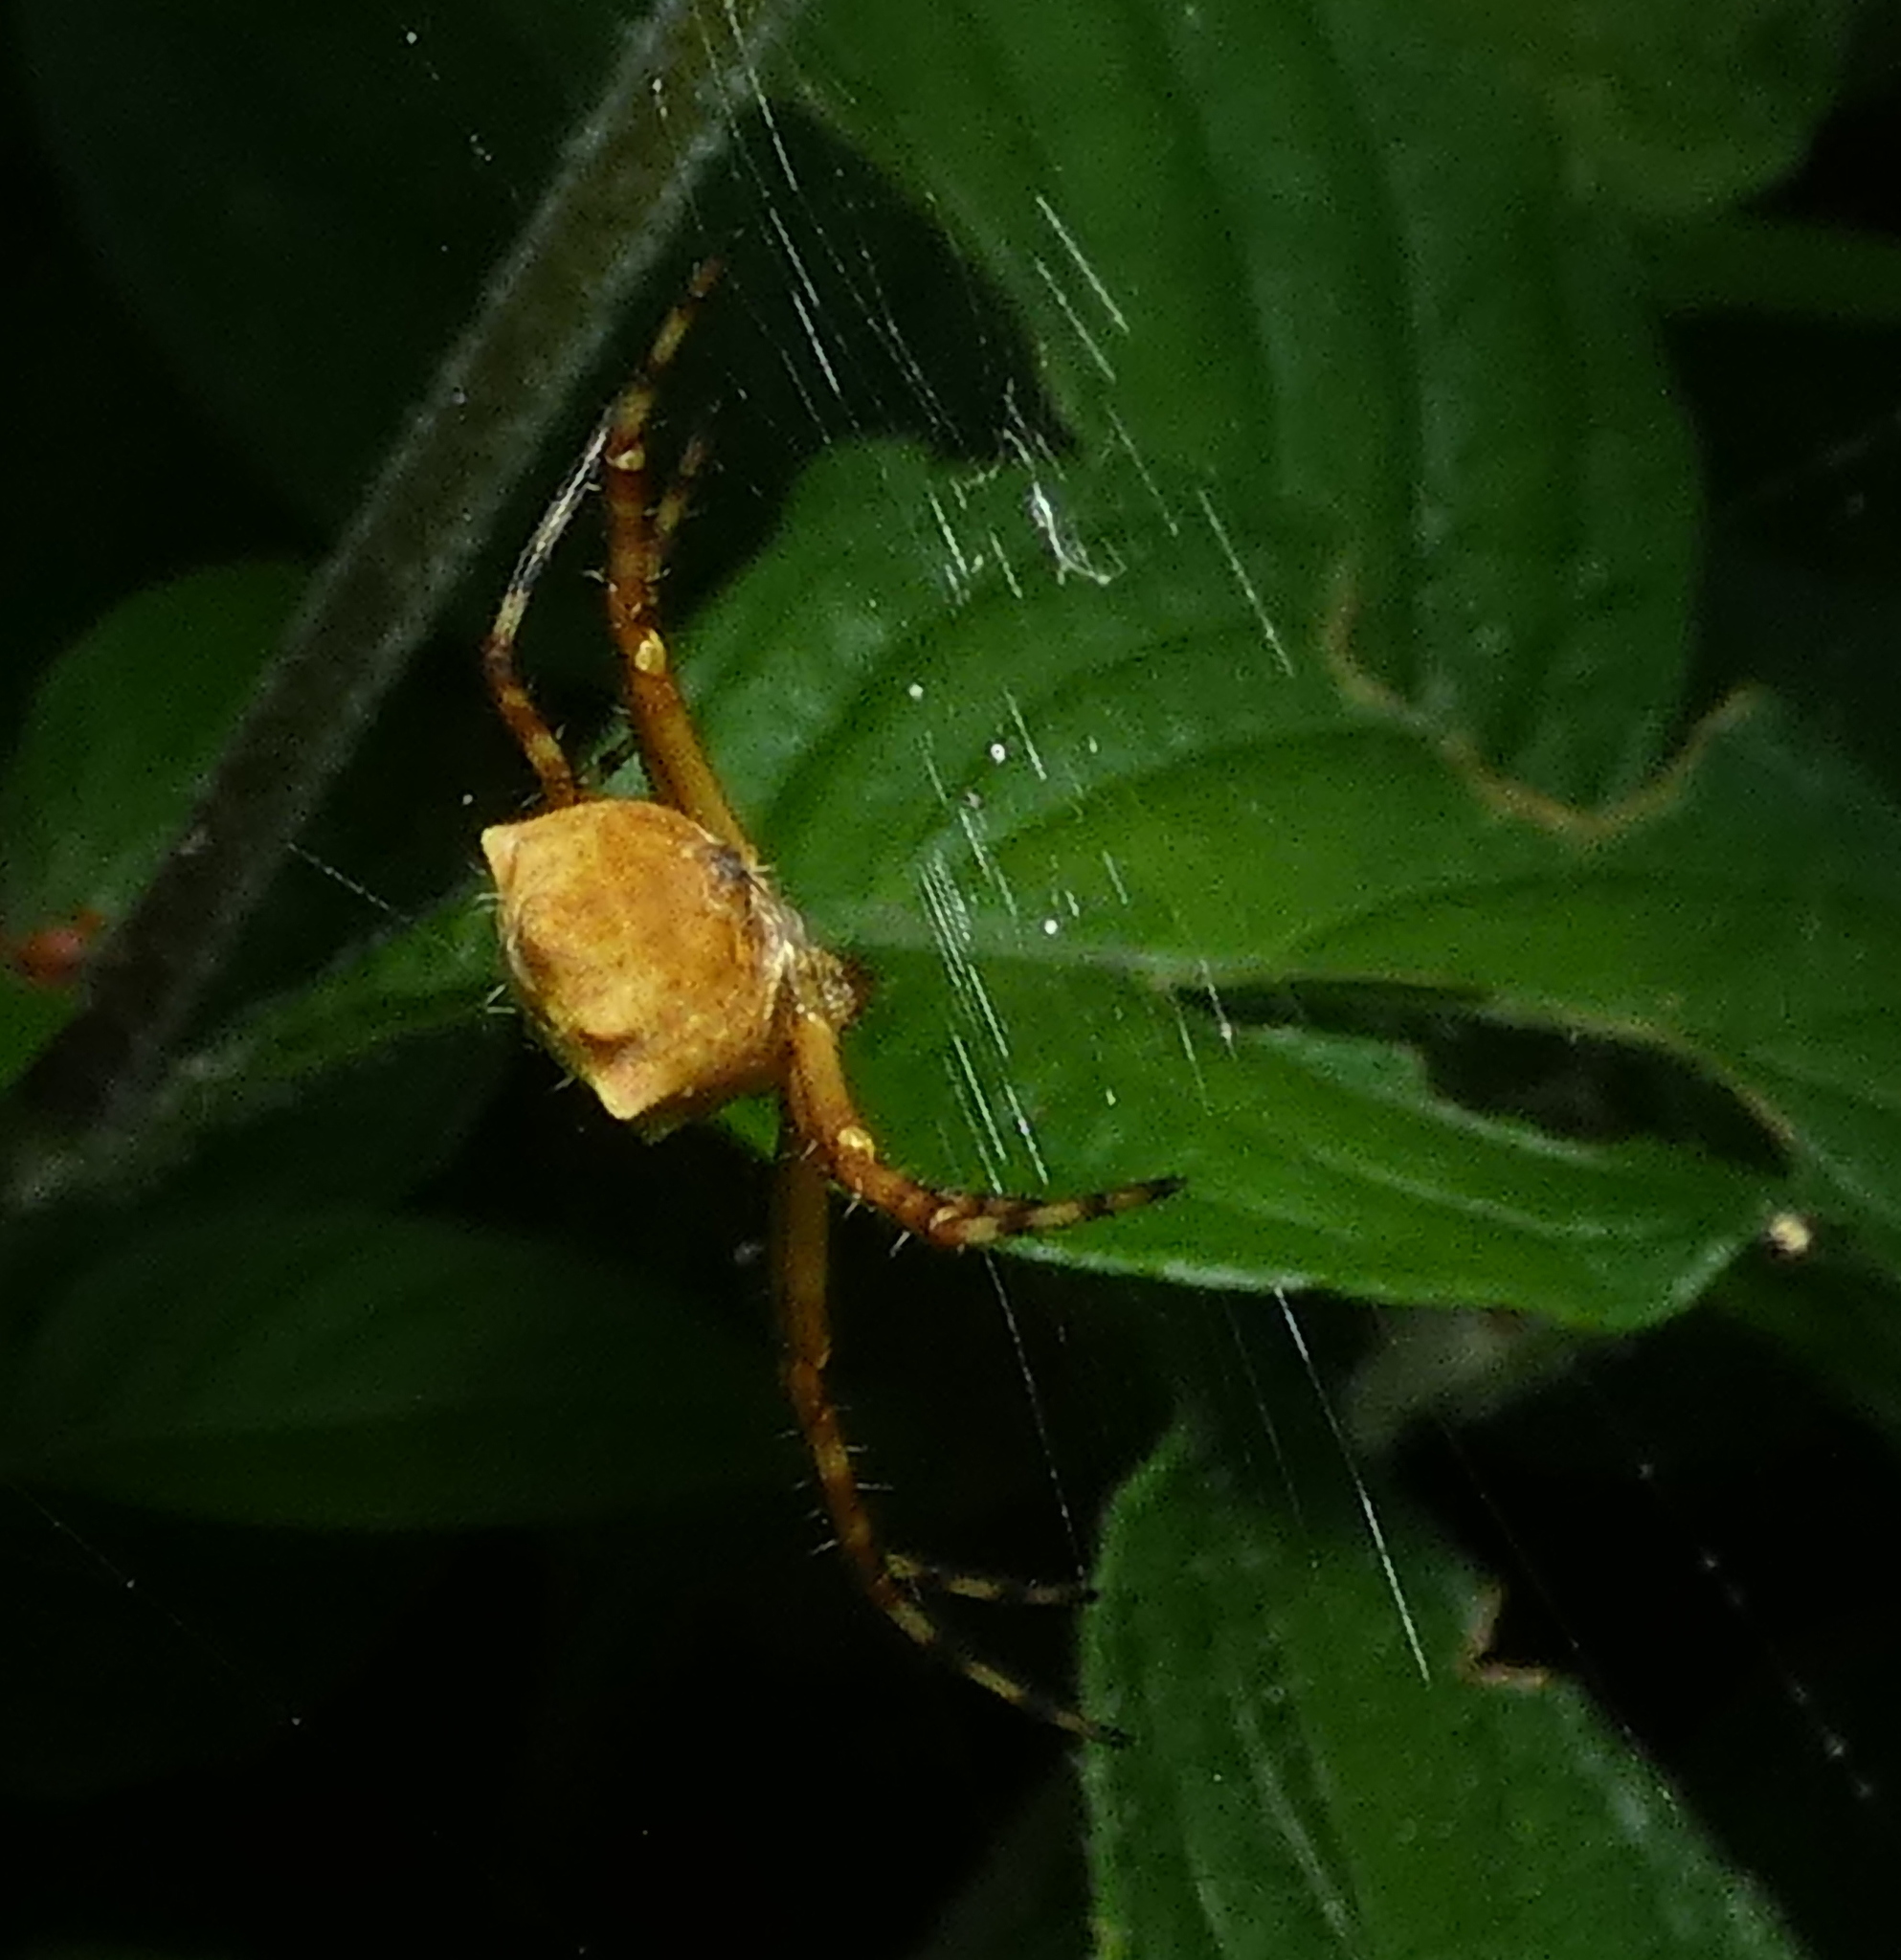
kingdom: Animalia
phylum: Arthropoda
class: Arachnida
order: Araneae
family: Araneidae
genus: Argiope
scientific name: Argiope argentata
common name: Orb weavers
